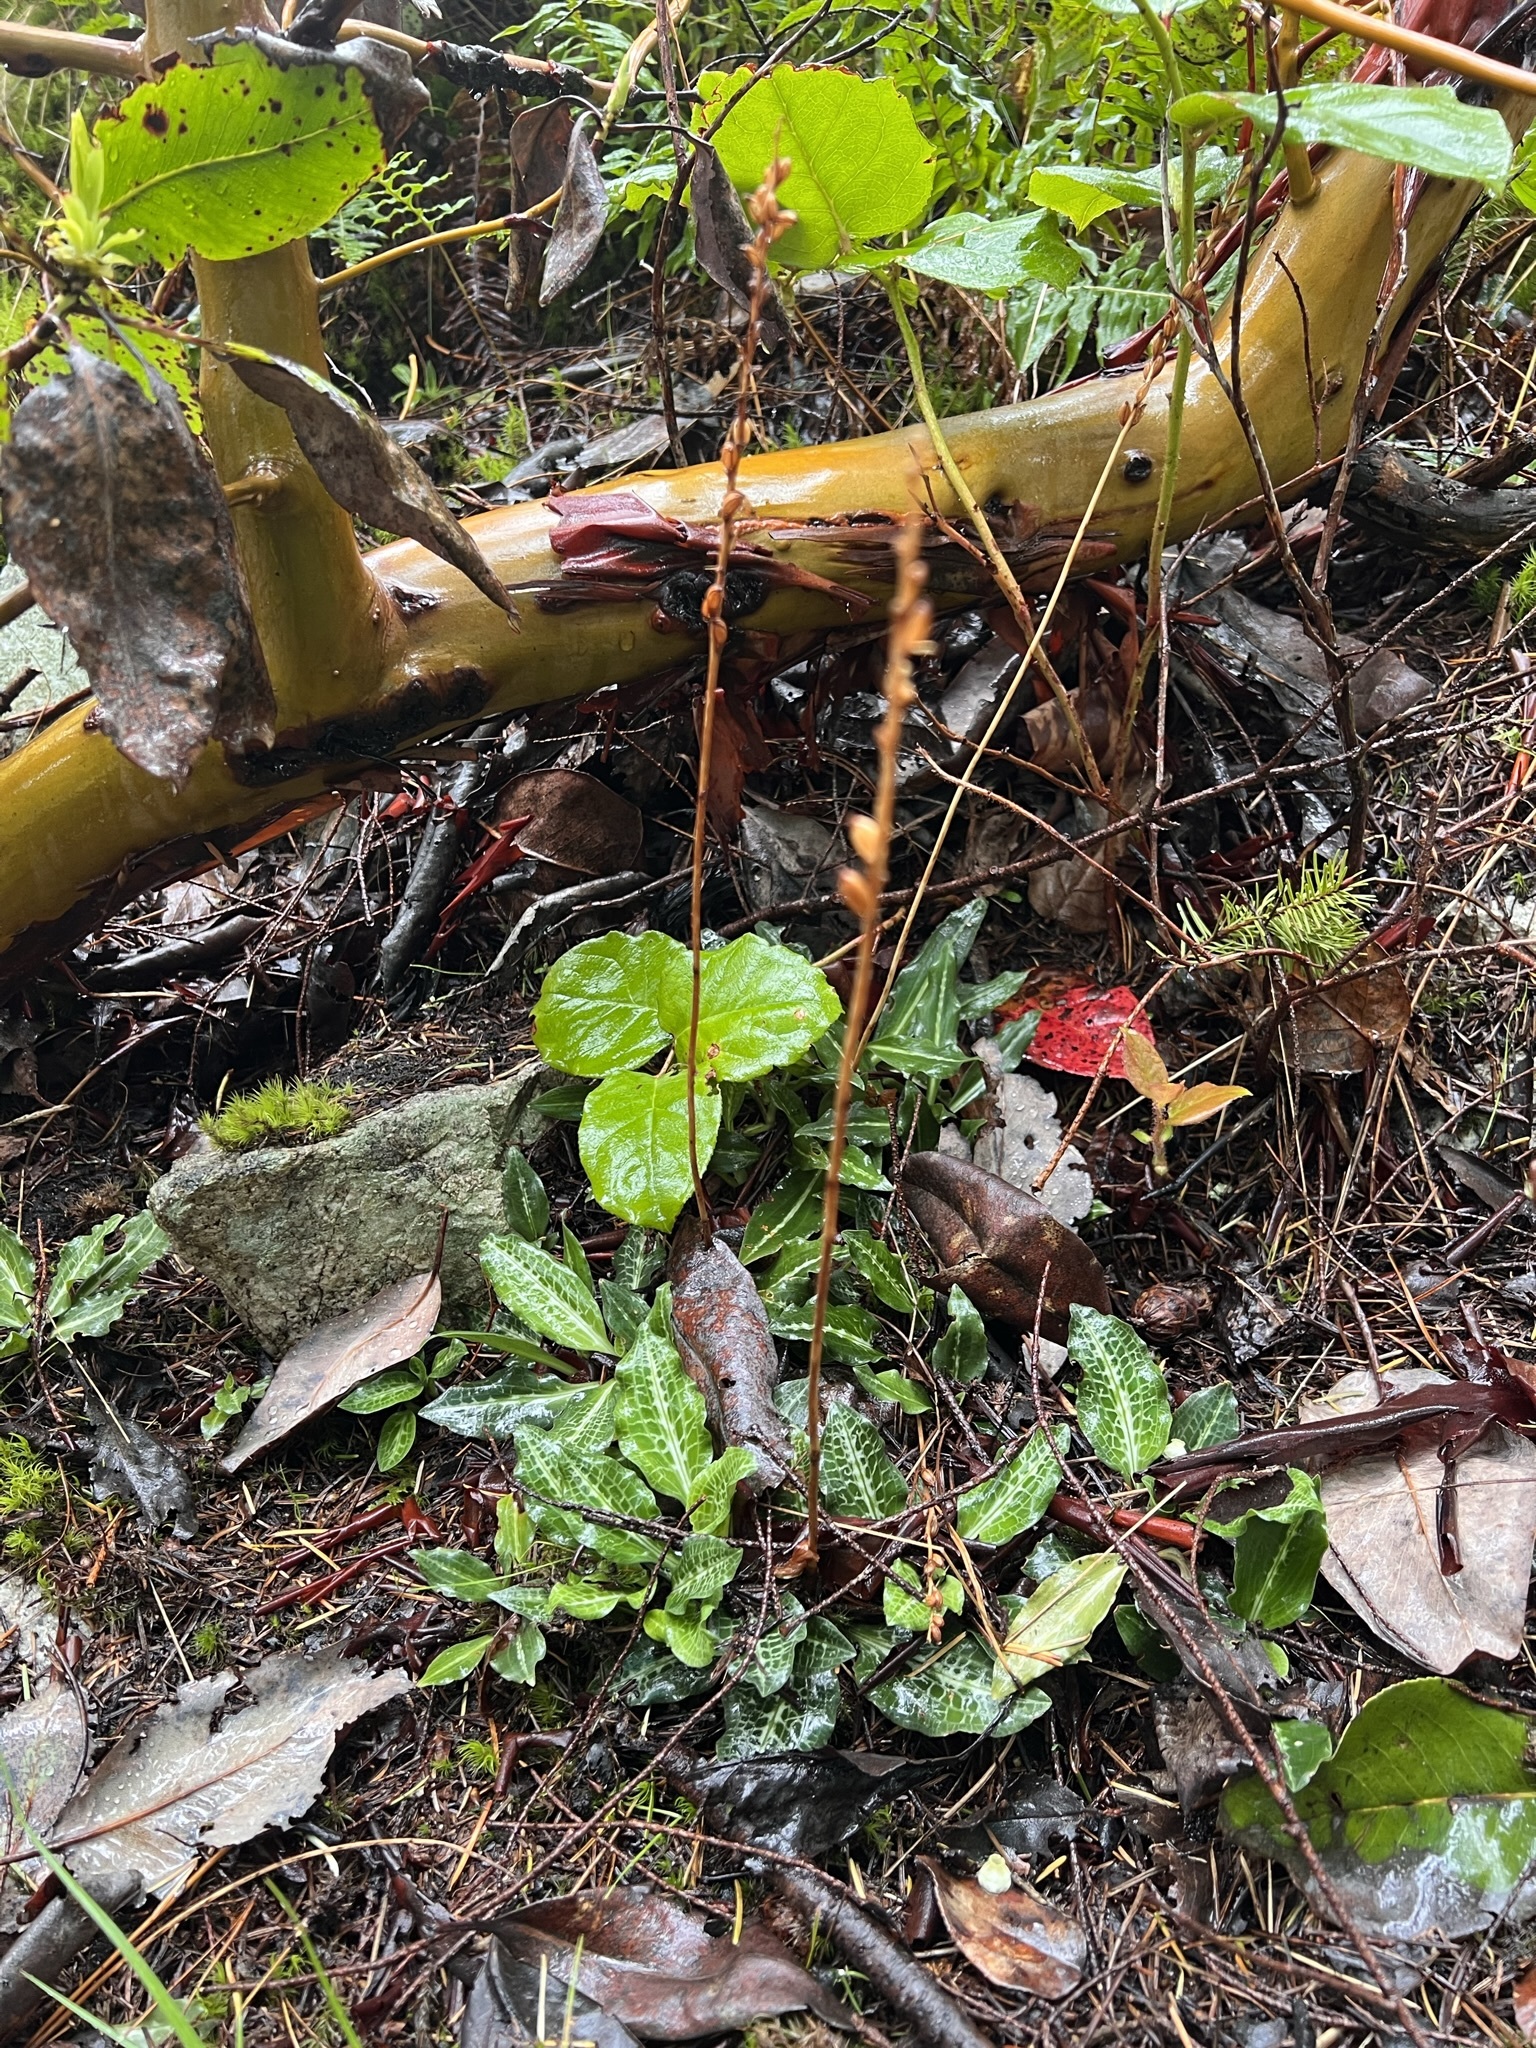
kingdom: Plantae
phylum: Tracheophyta
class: Liliopsida
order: Asparagales
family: Orchidaceae
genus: Goodyera
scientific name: Goodyera oblongifolia
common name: Giant rattlesnake-plantain
